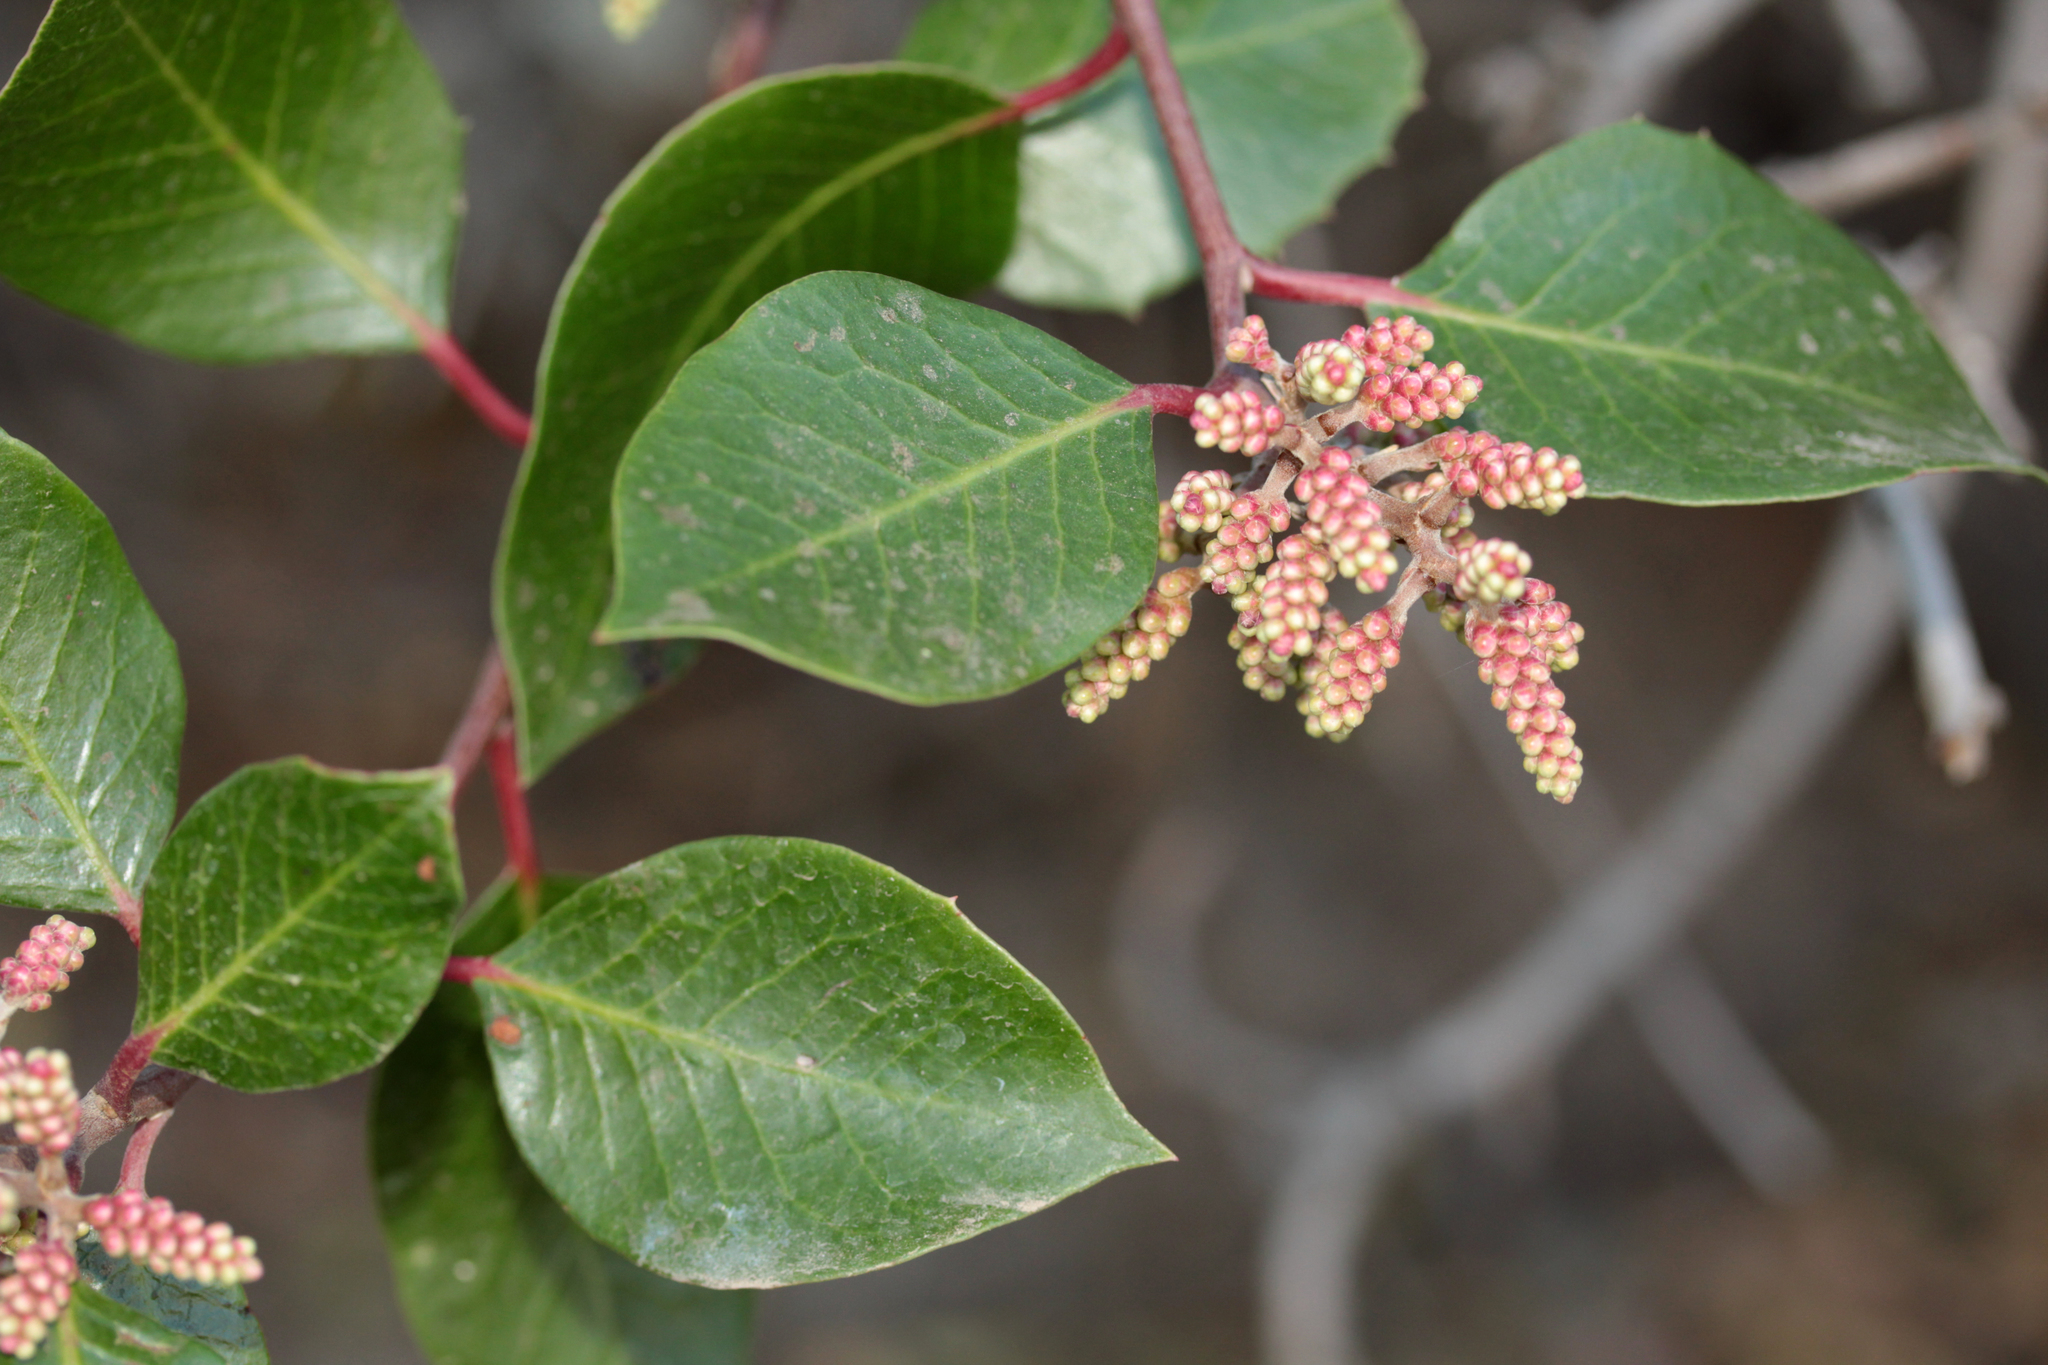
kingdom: Plantae
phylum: Tracheophyta
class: Magnoliopsida
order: Sapindales
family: Anacardiaceae
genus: Rhus
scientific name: Rhus ovata
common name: Sugar sumac
